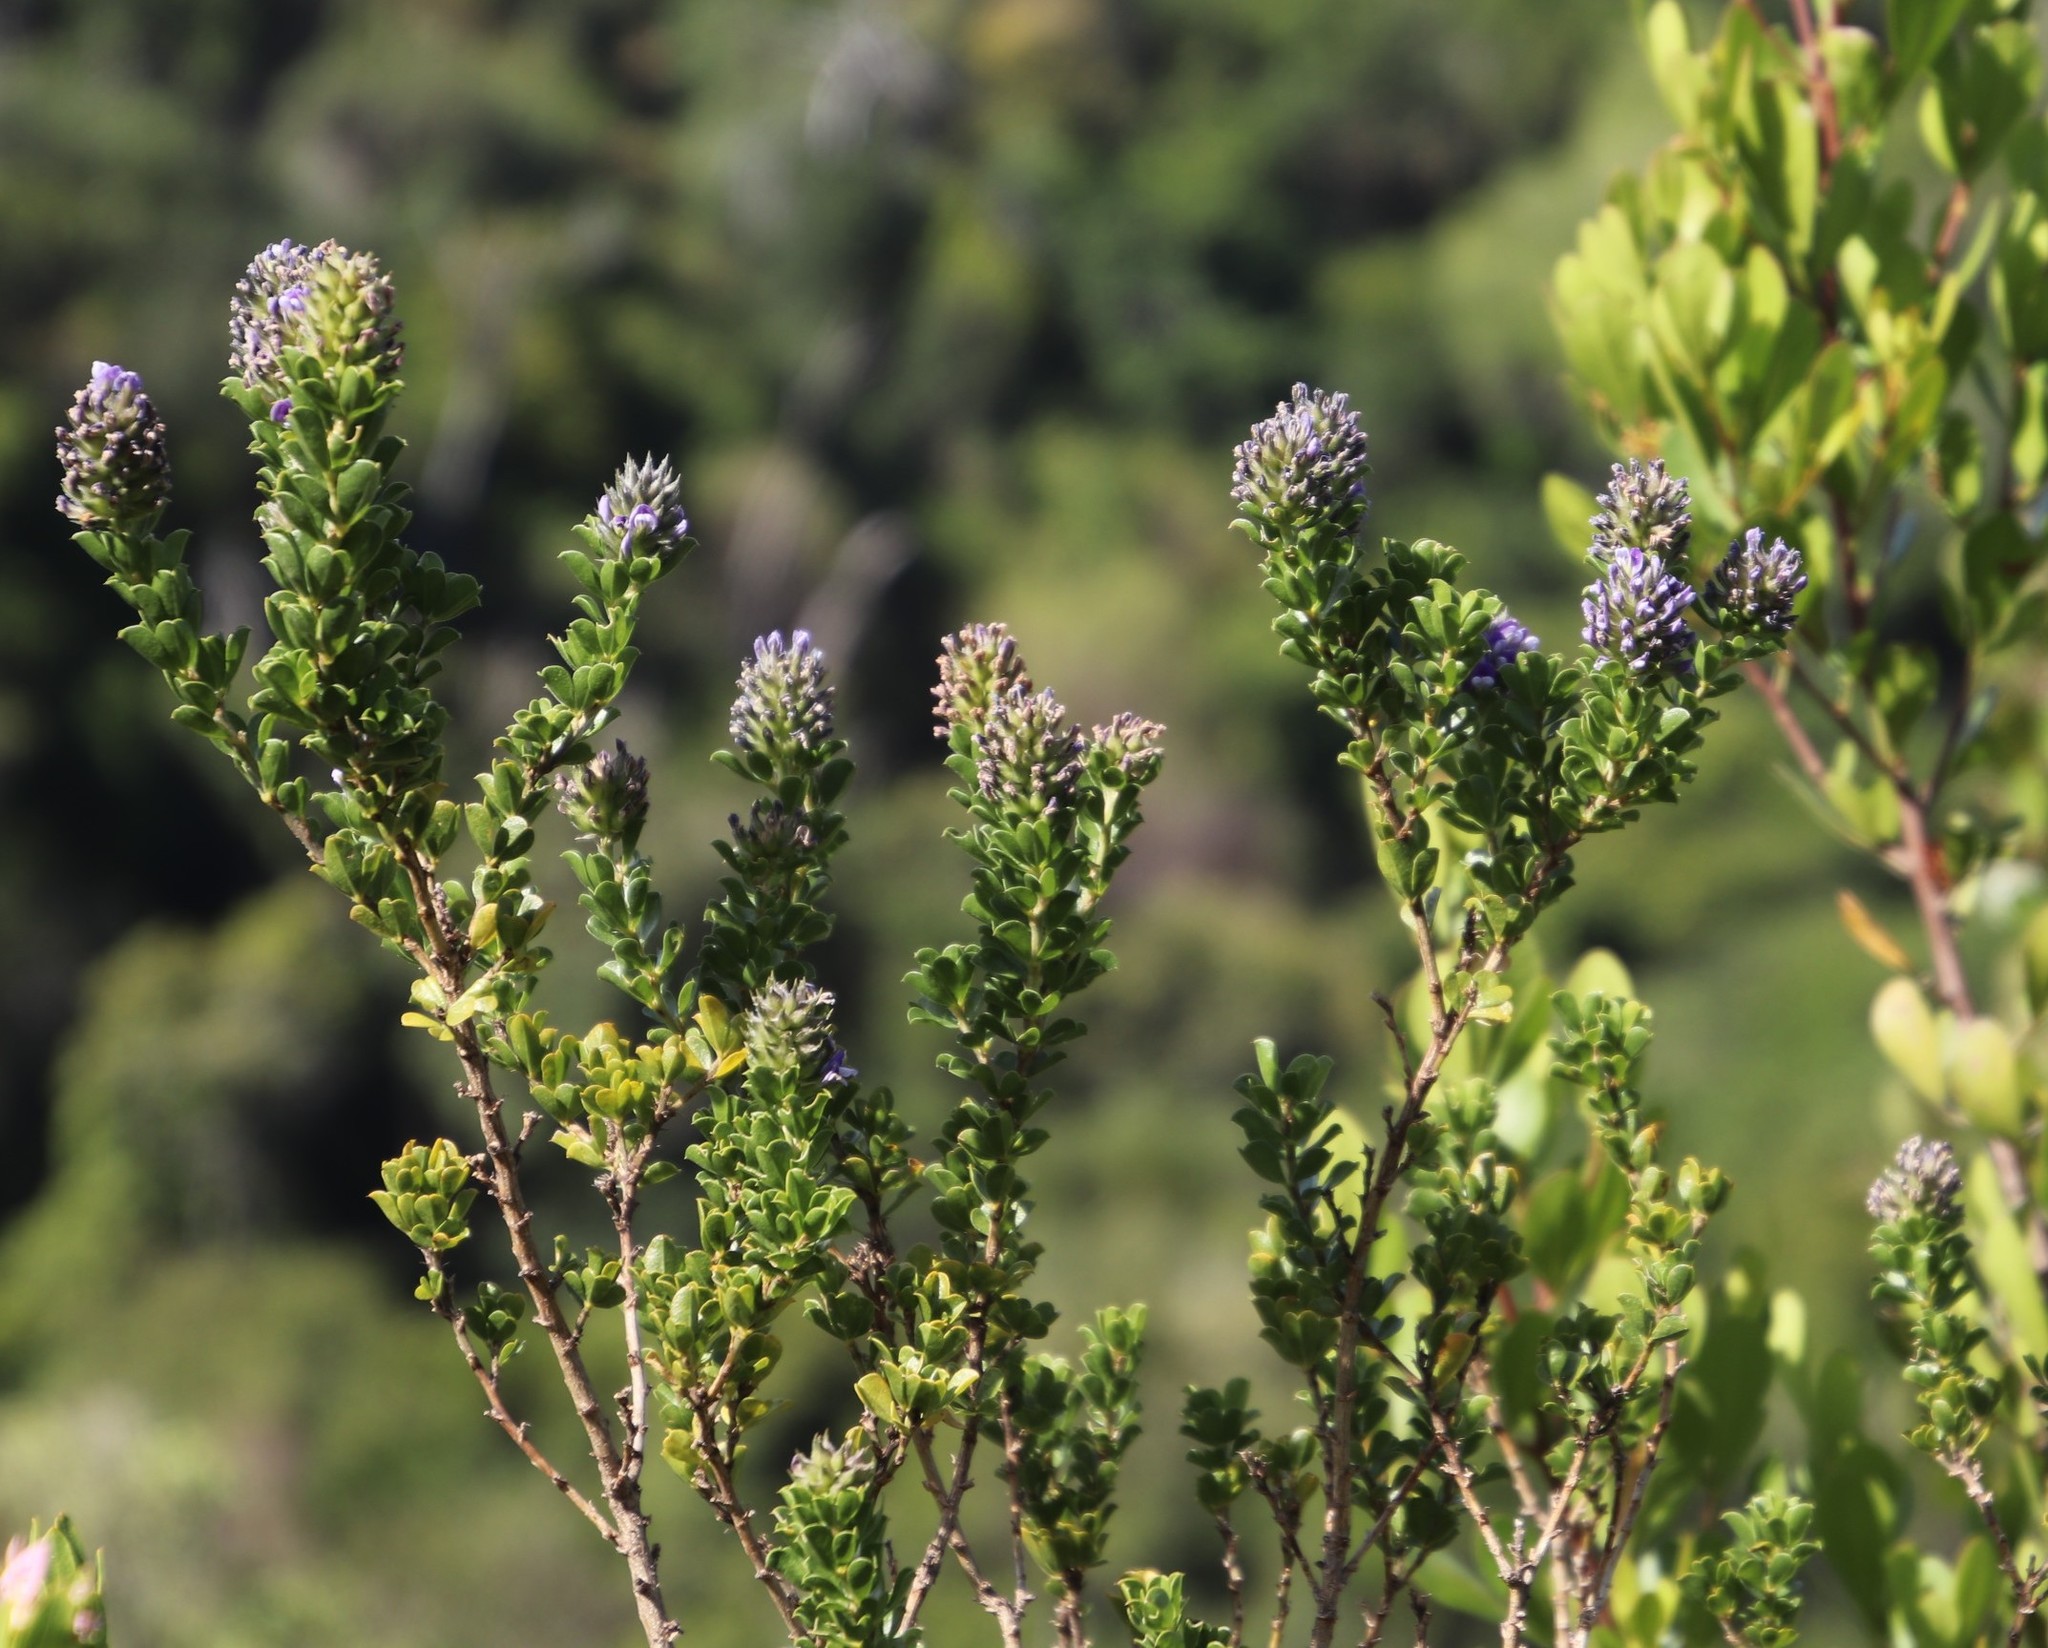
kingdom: Plantae
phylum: Tracheophyta
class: Magnoliopsida
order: Fabales
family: Fabaceae
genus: Psoralea
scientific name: Psoralea bracteolata
